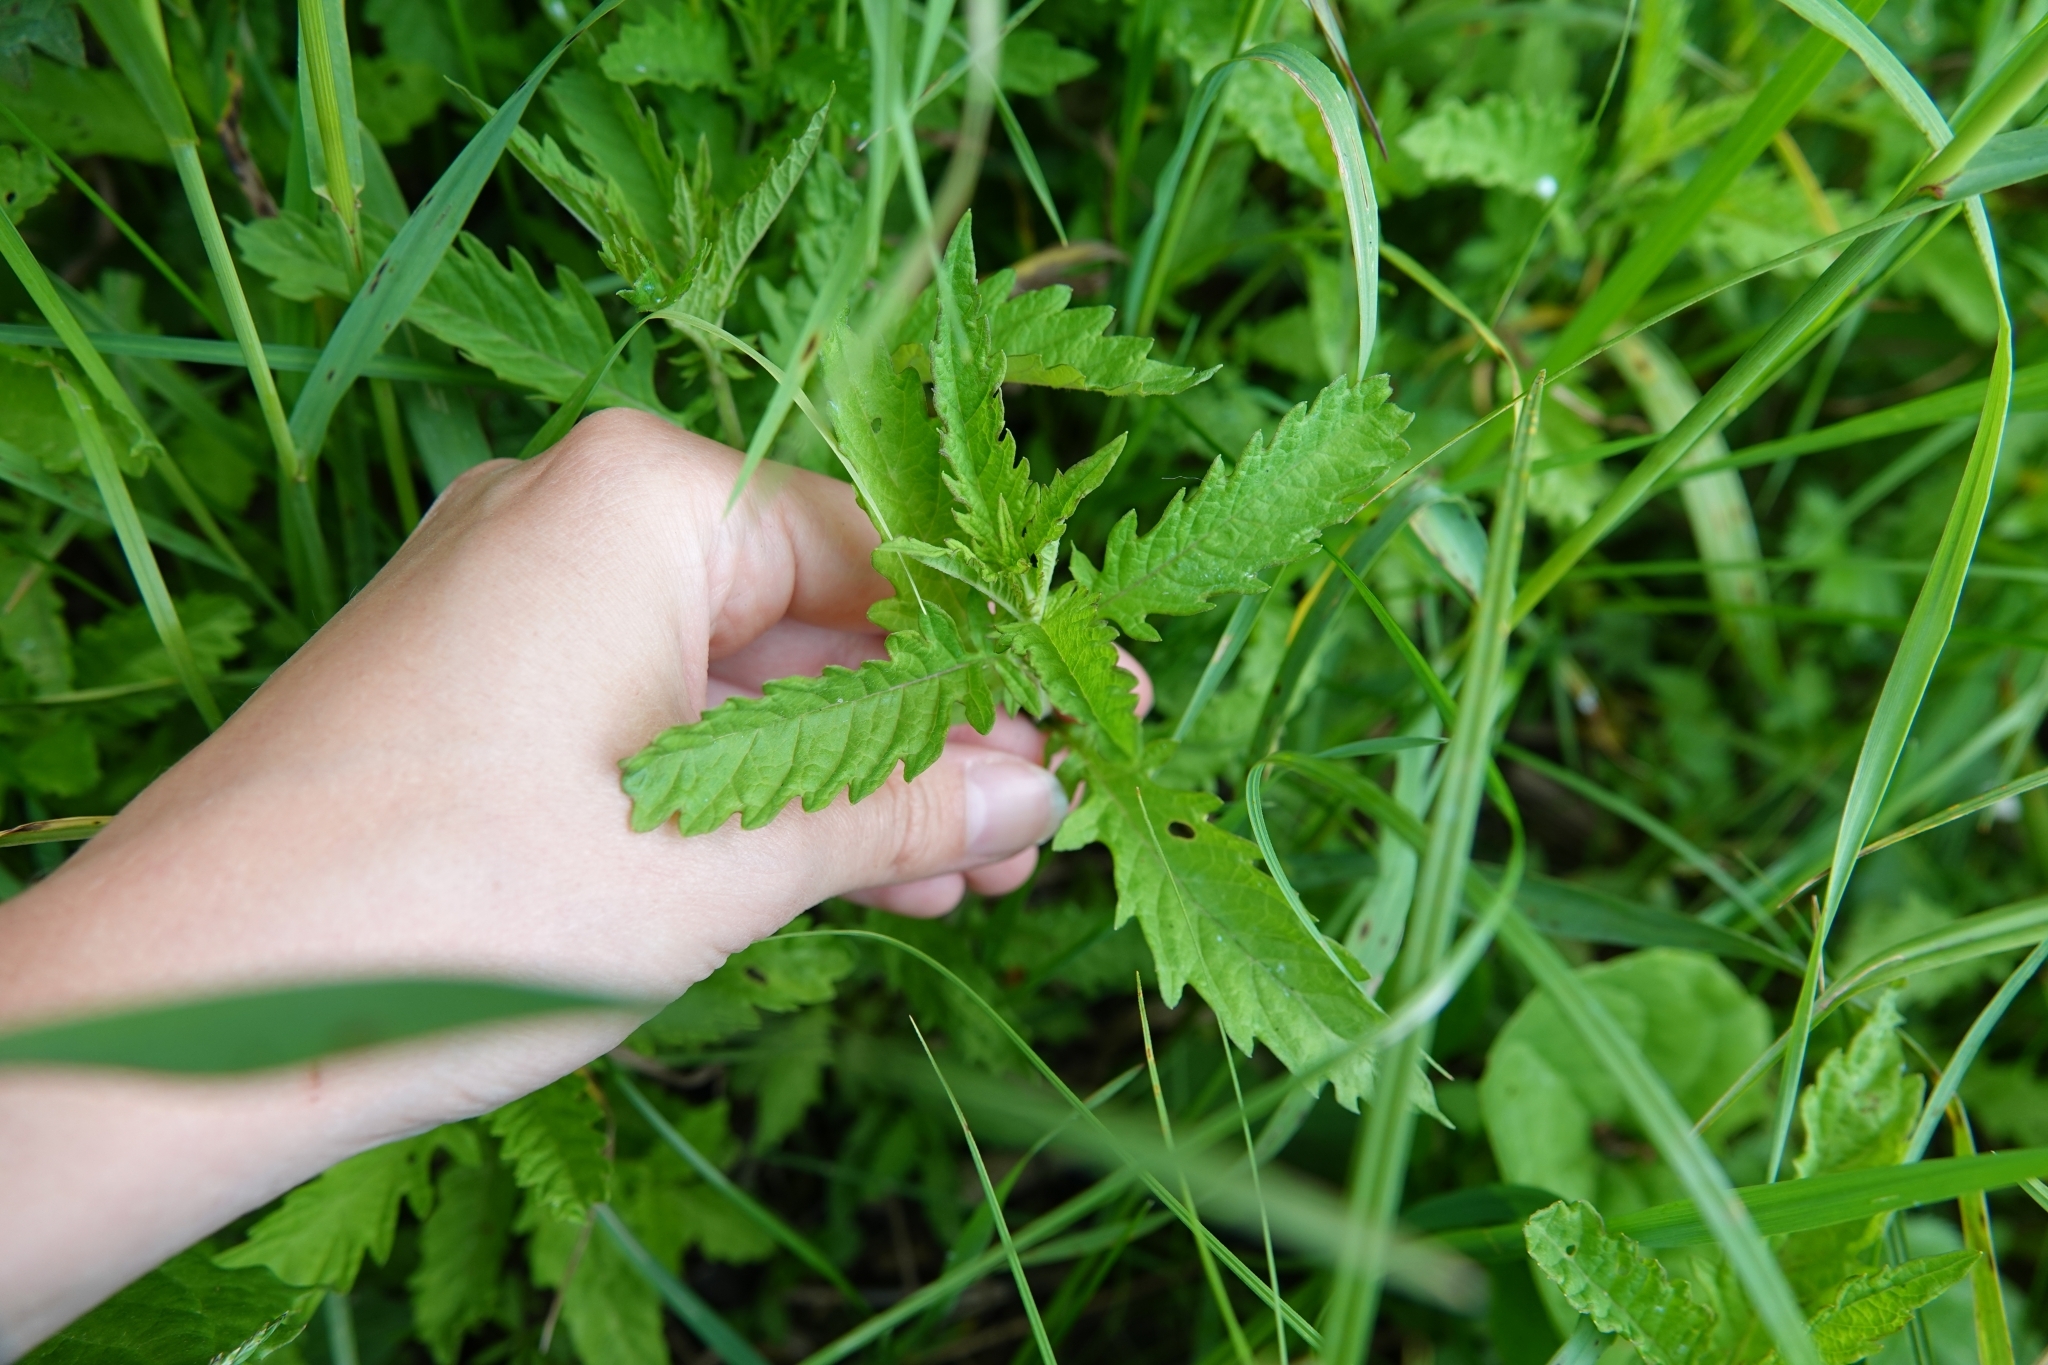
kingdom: Plantae
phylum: Tracheophyta
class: Magnoliopsida
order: Lamiales
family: Lamiaceae
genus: Lycopus
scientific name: Lycopus europaeus
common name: European bugleweed
